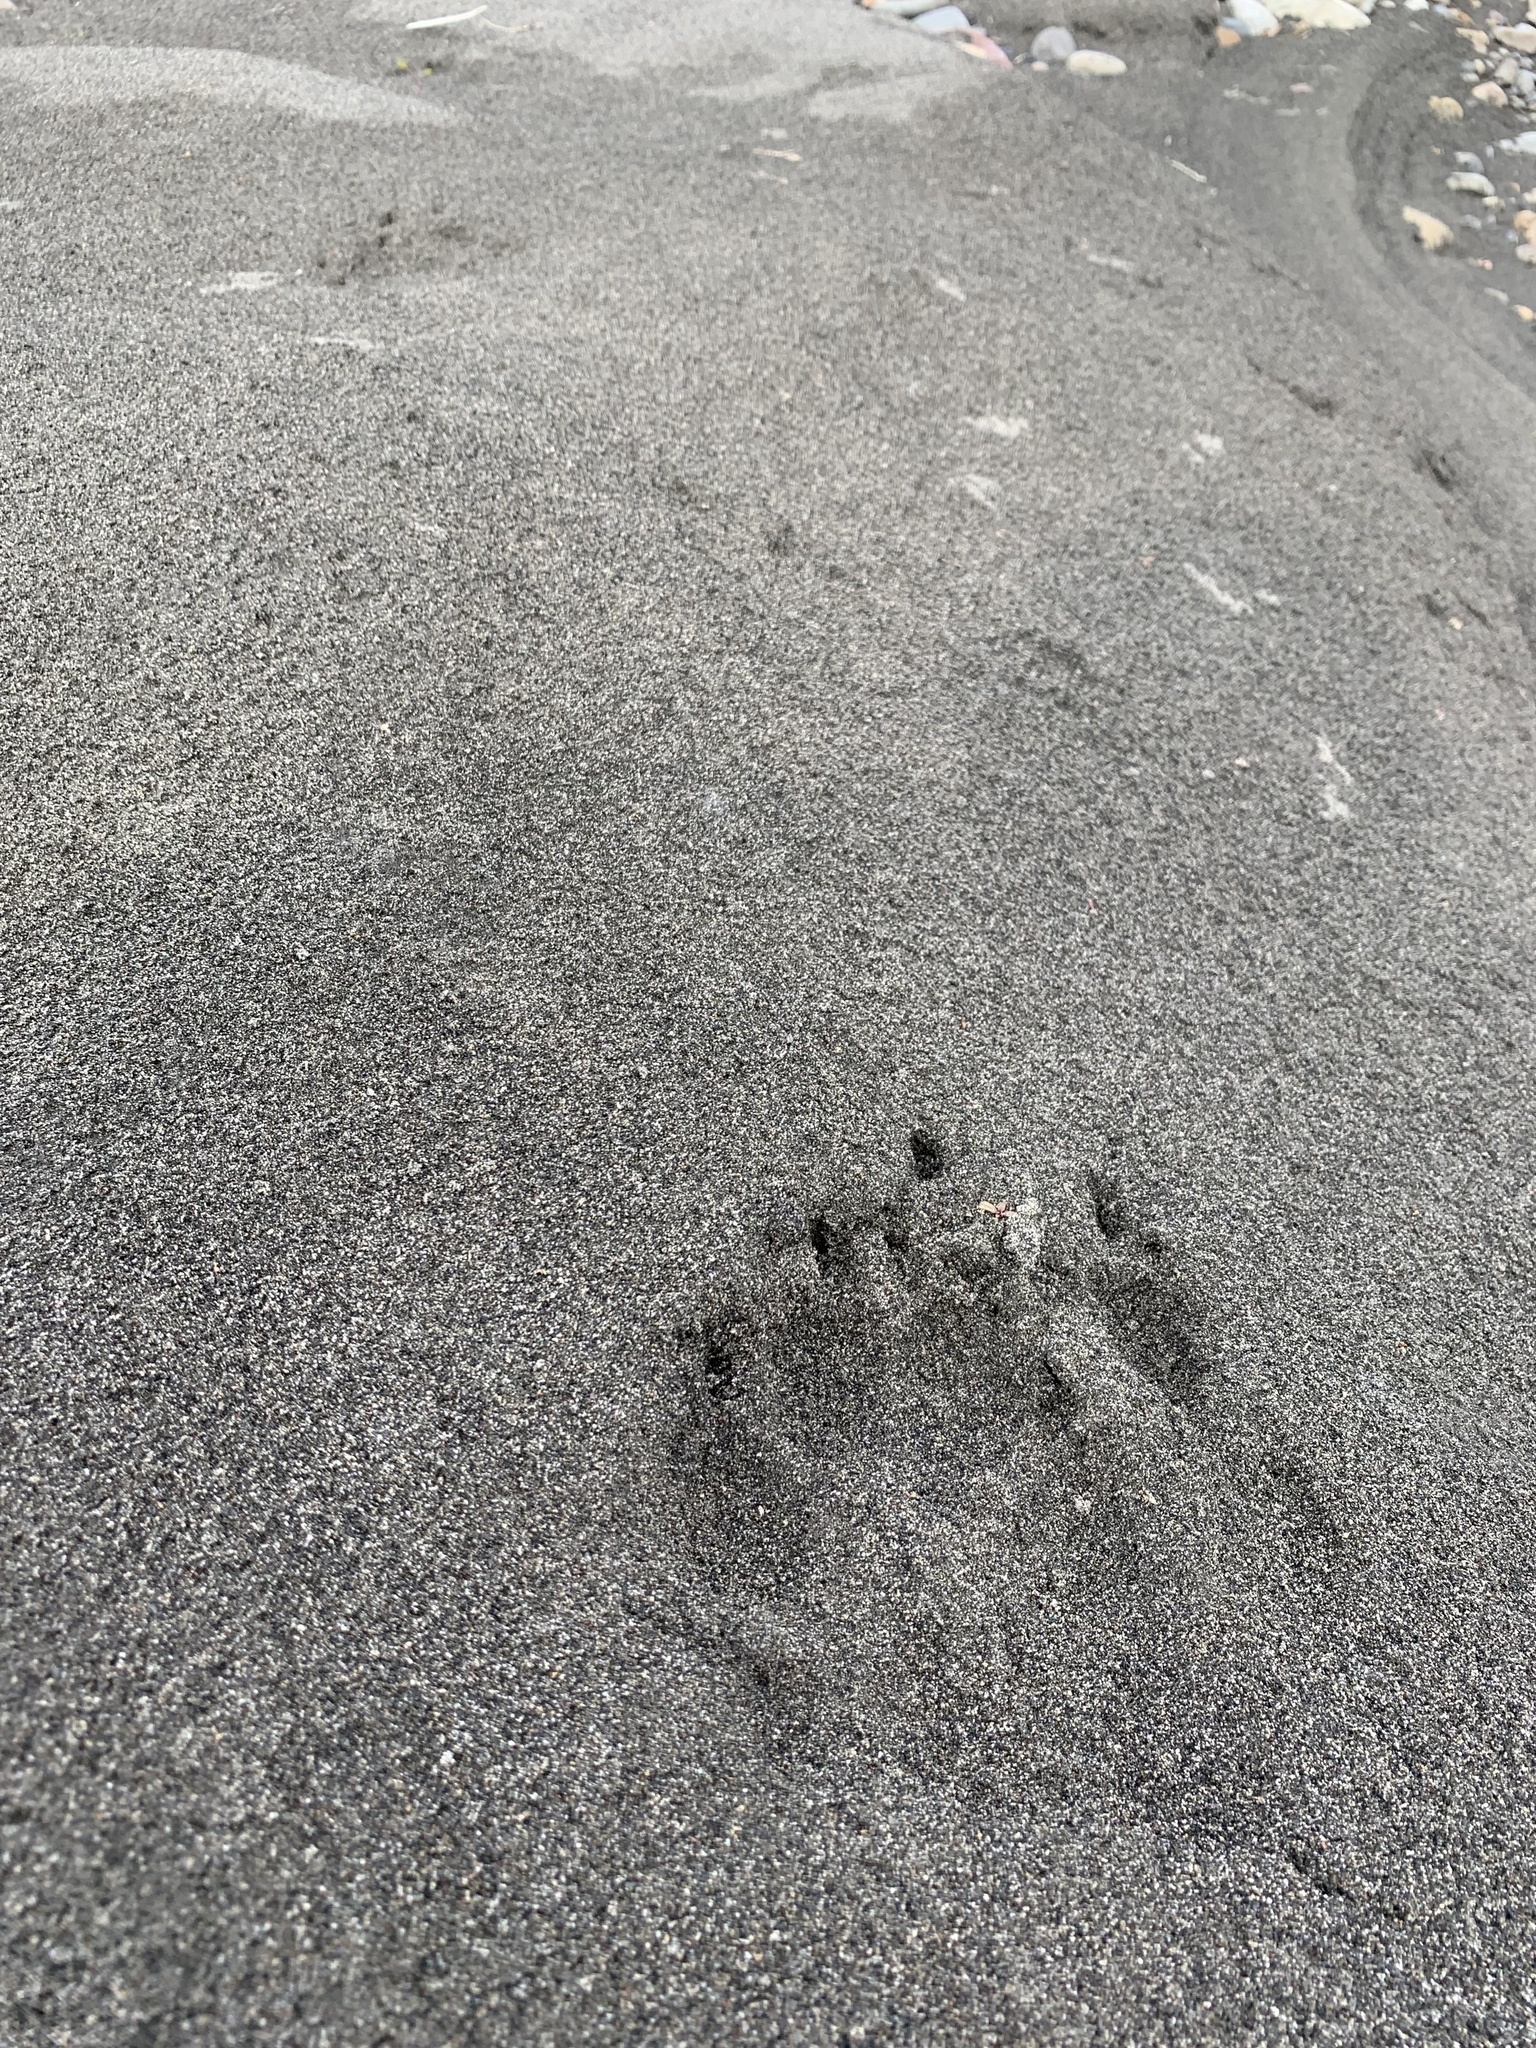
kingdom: Animalia
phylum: Chordata
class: Mammalia
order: Carnivora
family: Canidae
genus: Canis
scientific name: Canis lupus
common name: Gray wolf
